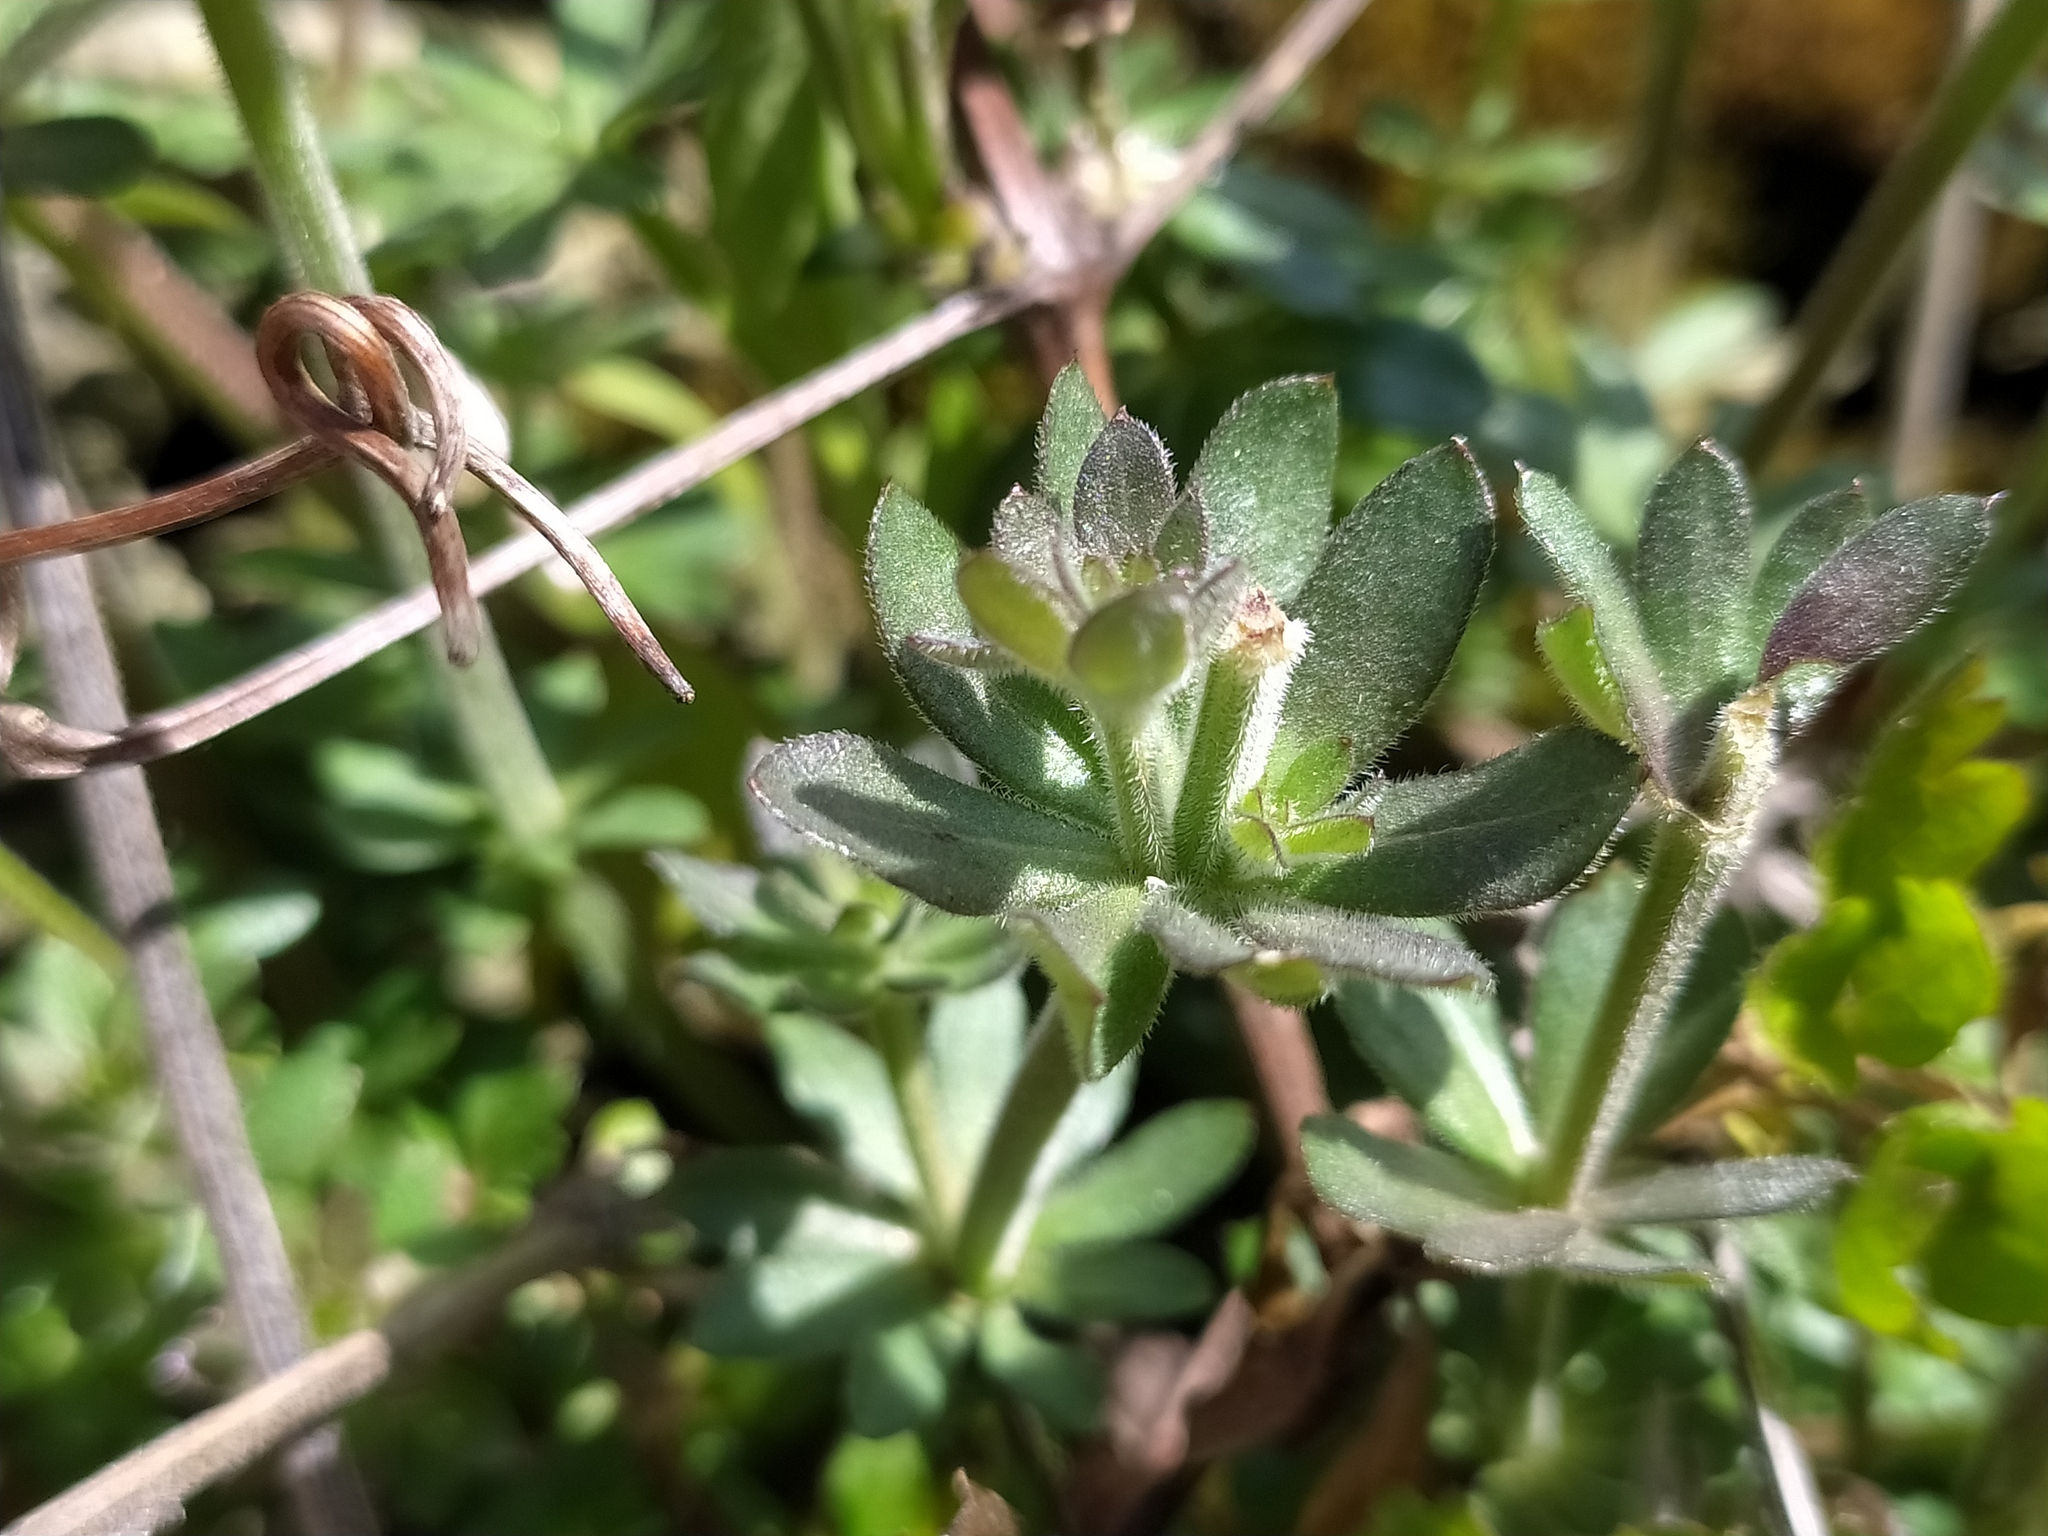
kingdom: Plantae
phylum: Tracheophyta
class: Magnoliopsida
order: Gentianales
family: Rubiaceae
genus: Galium
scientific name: Galium album
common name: White bedstraw
